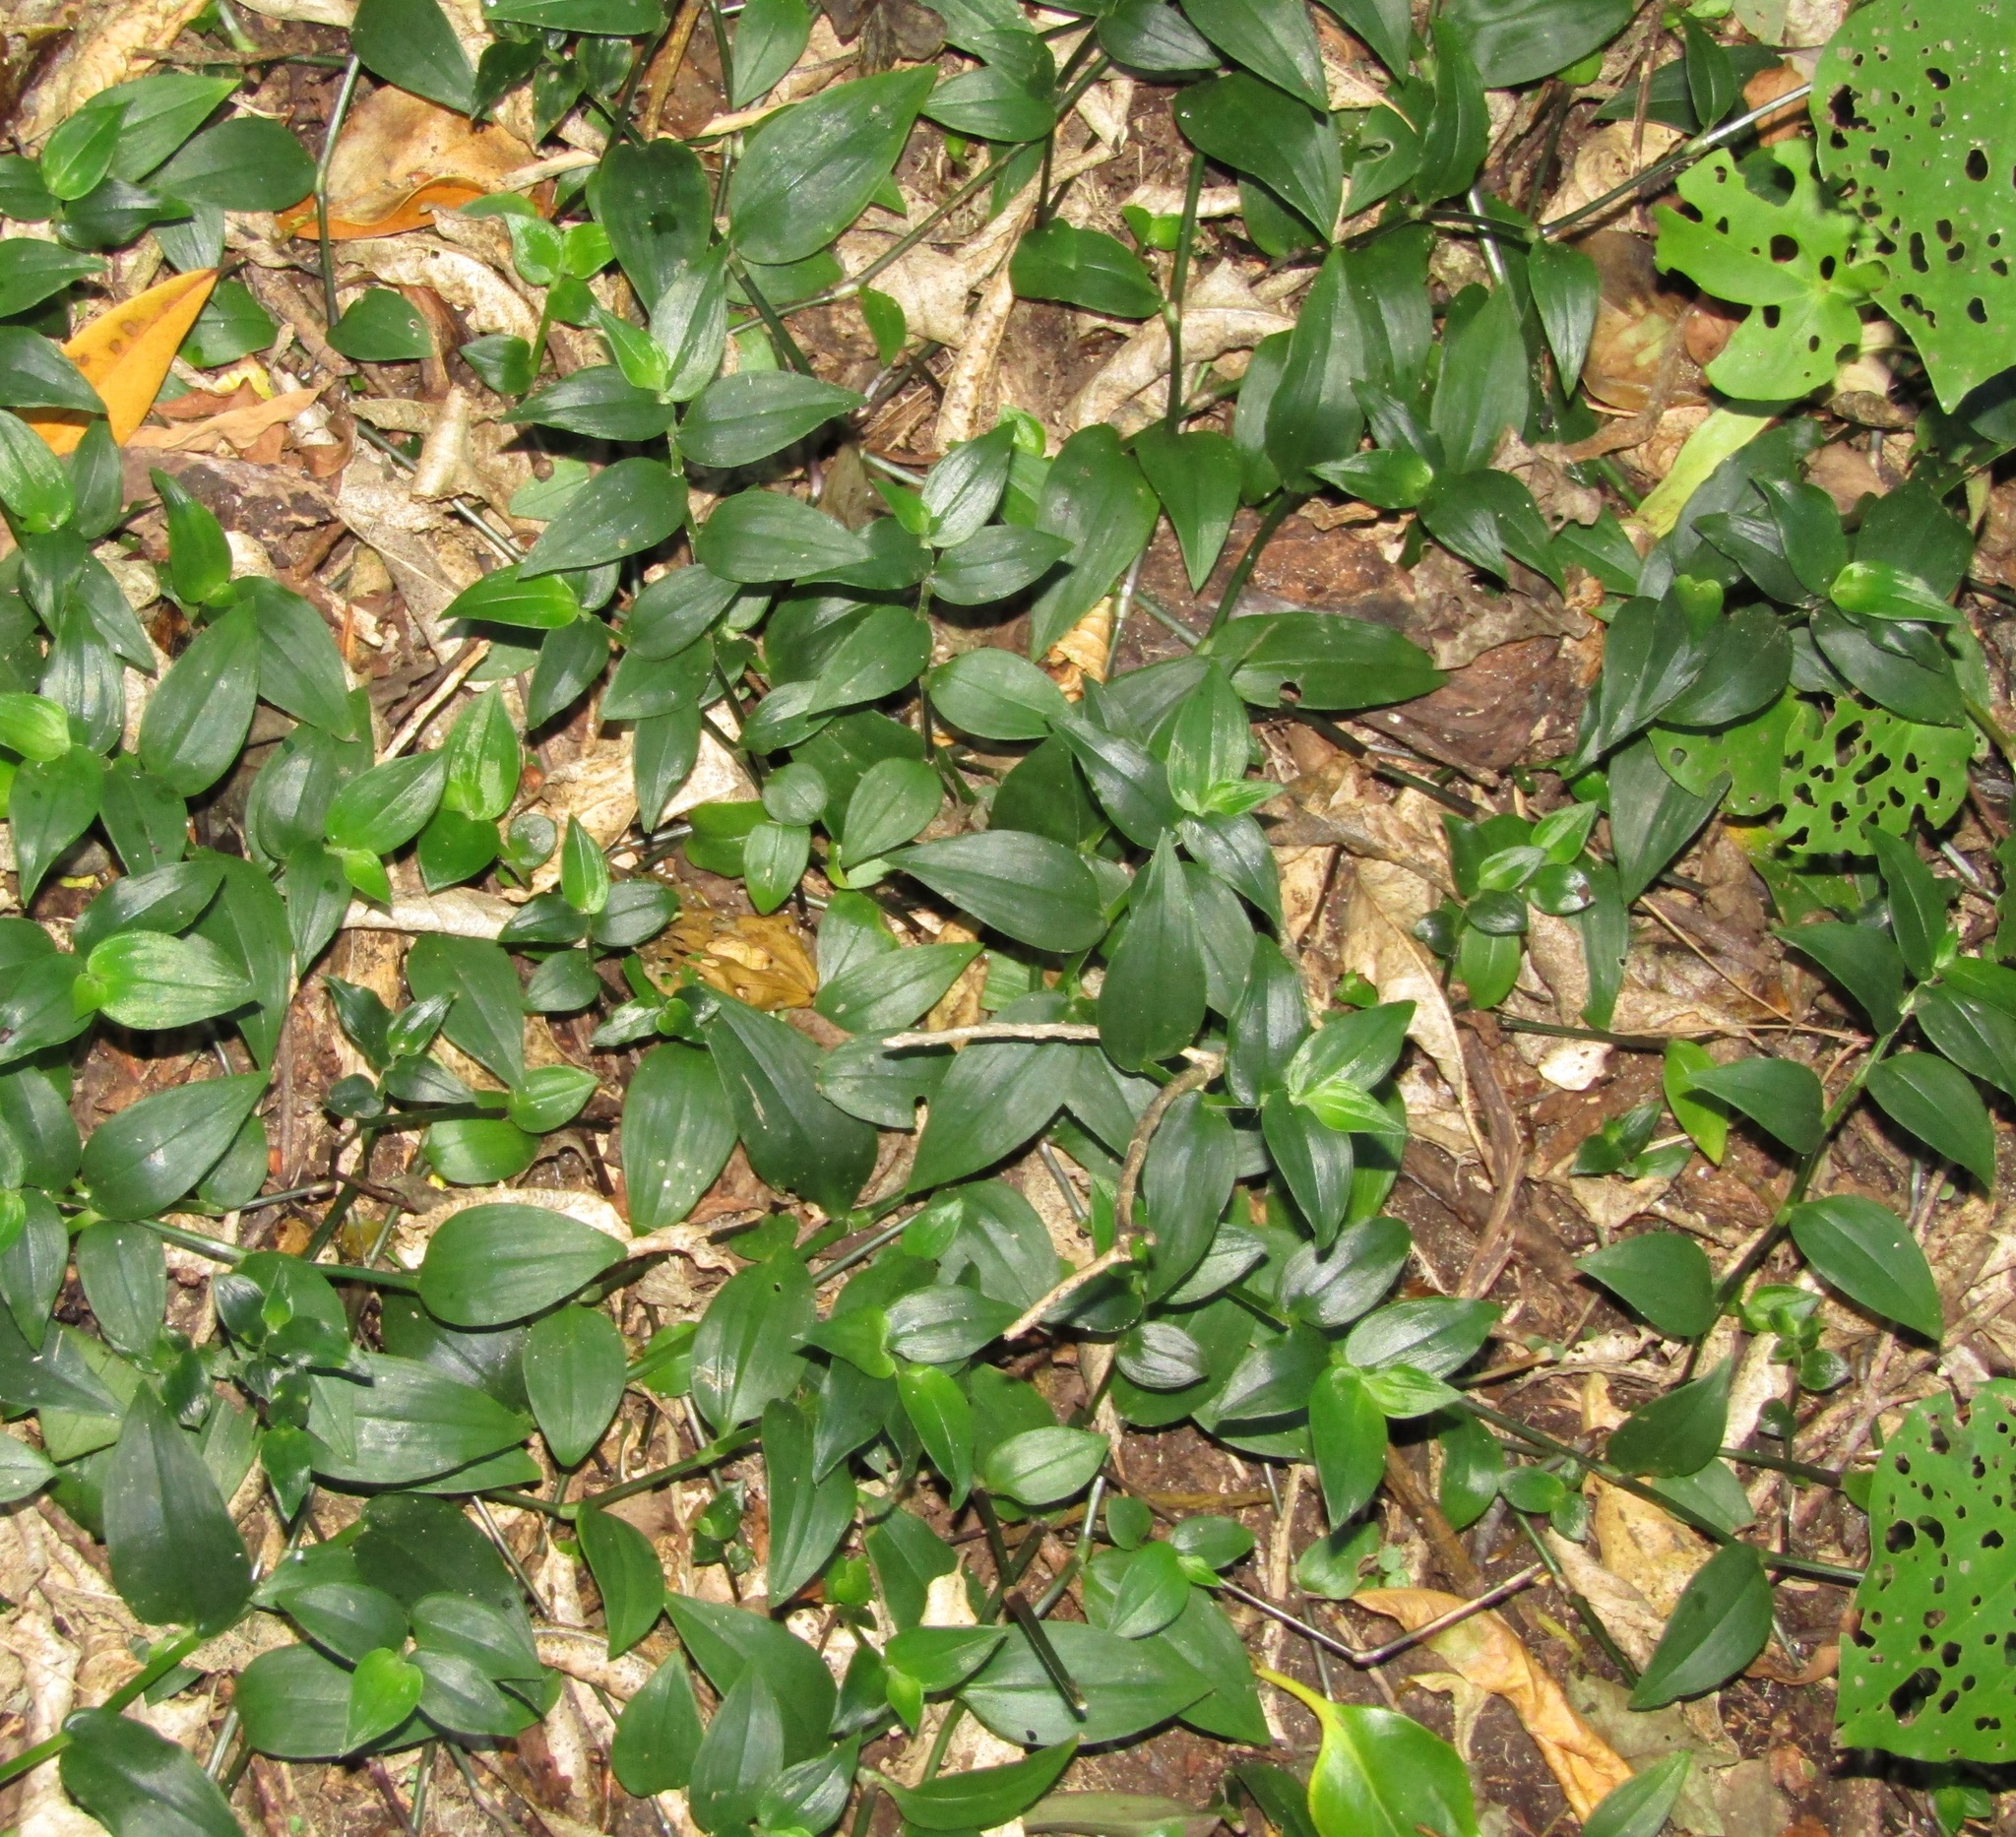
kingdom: Plantae
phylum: Tracheophyta
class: Liliopsida
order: Commelinales
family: Commelinaceae
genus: Tradescantia
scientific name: Tradescantia fluminensis
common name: Wandering-jew
